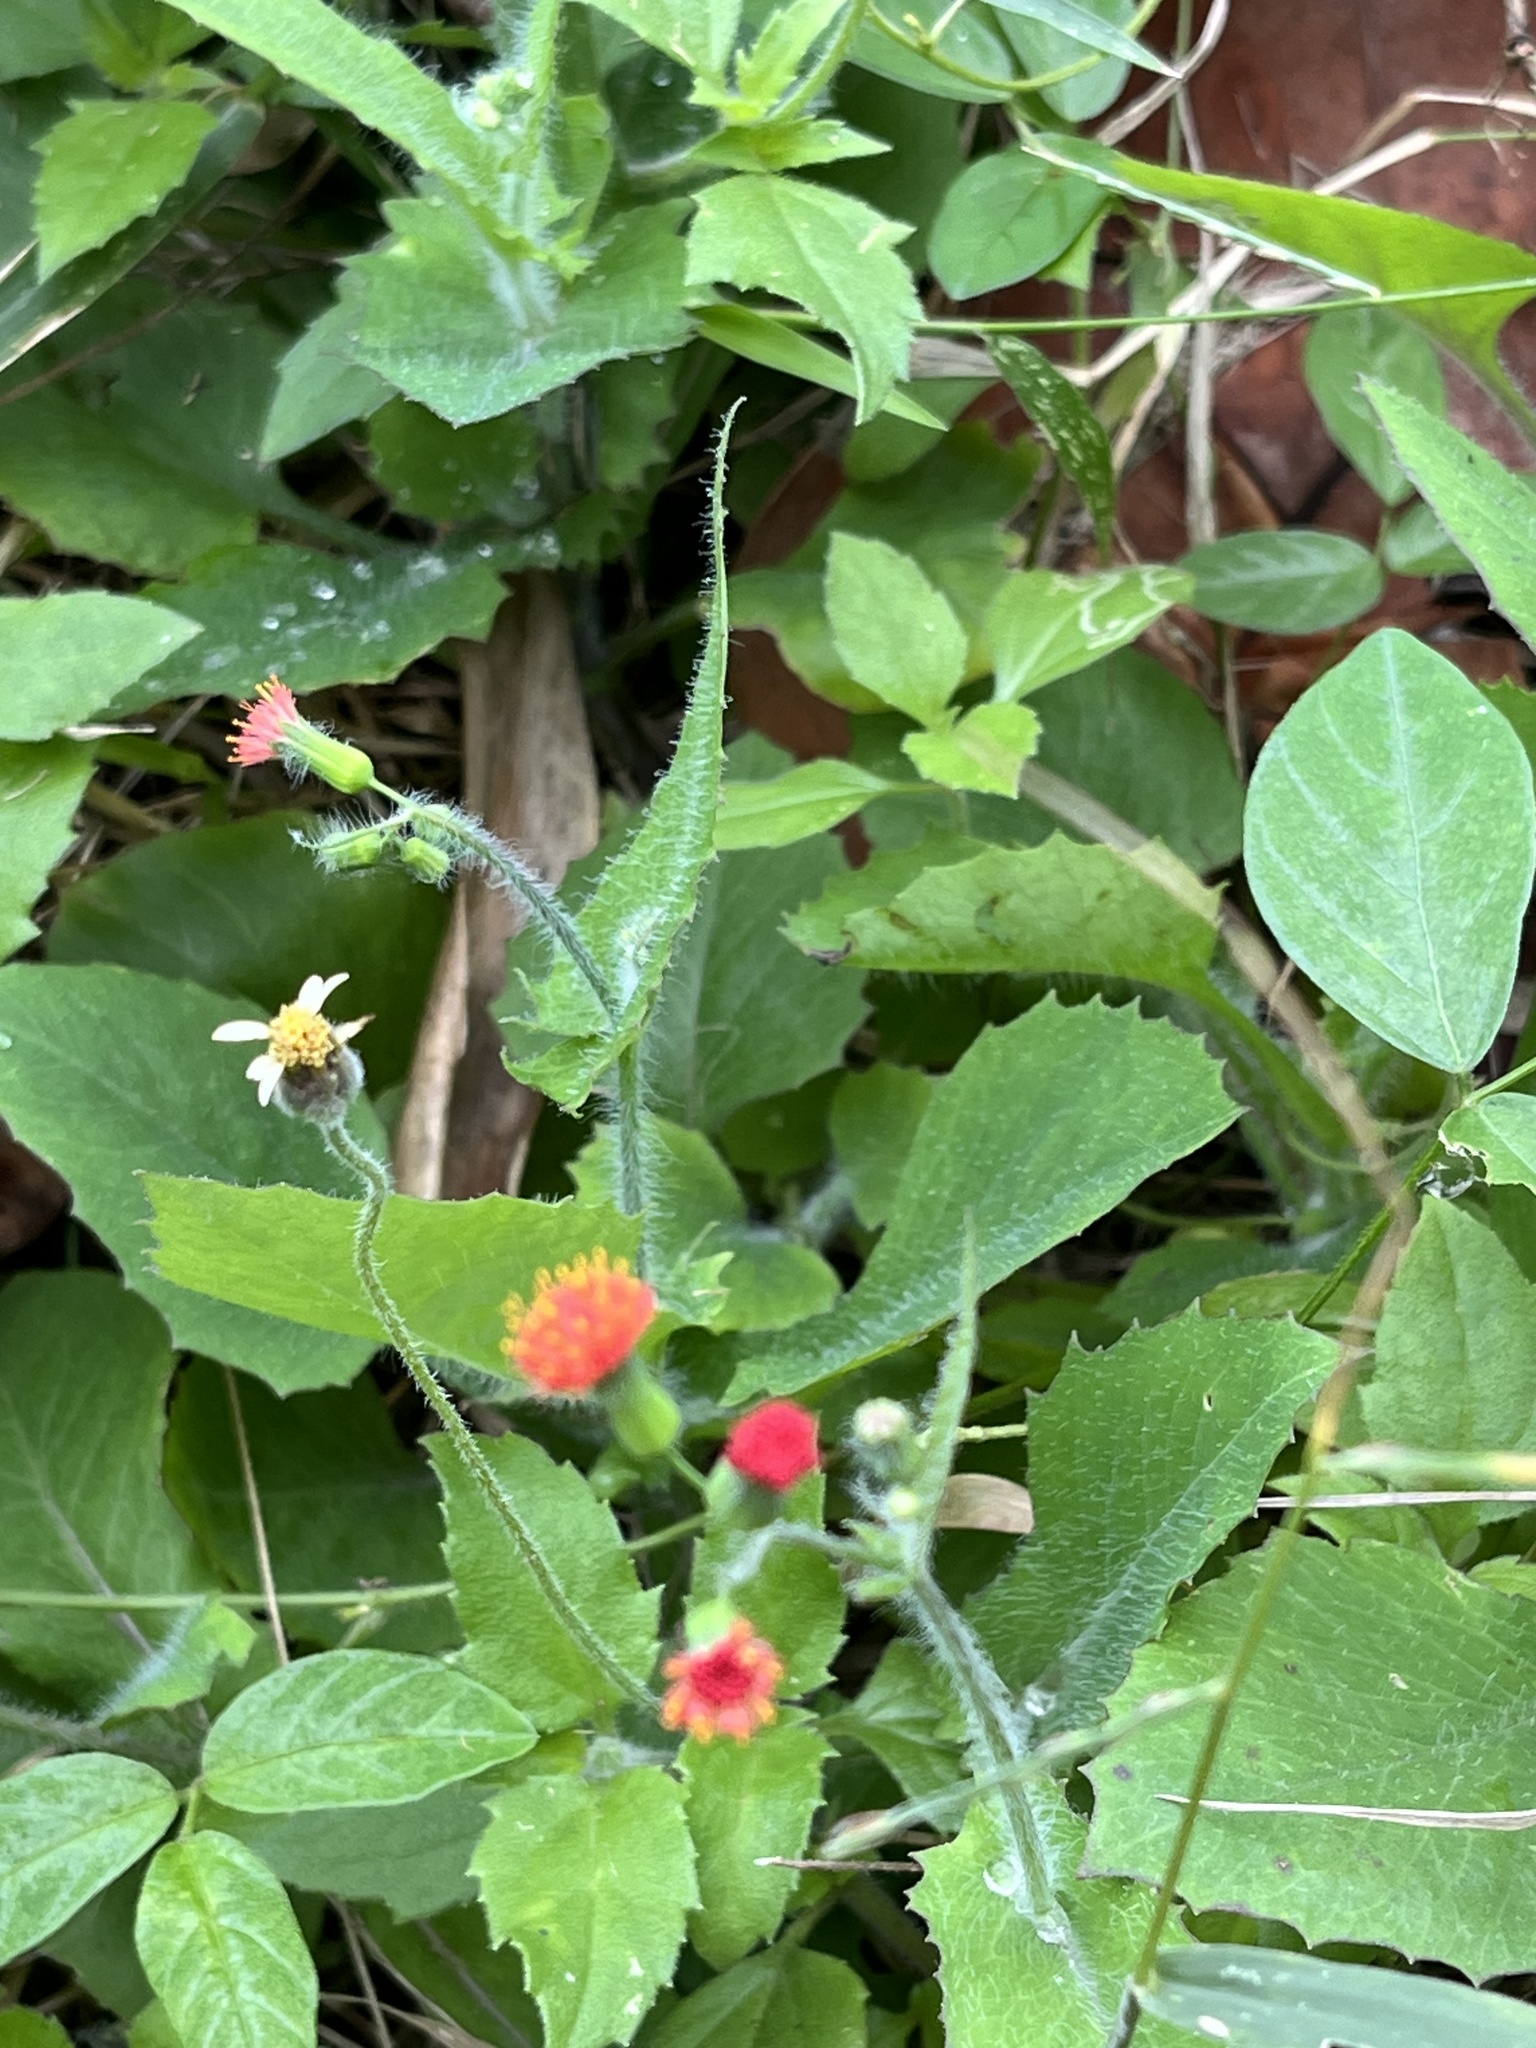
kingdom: Plantae
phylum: Tracheophyta
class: Magnoliopsida
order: Asterales
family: Asteraceae
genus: Emilia
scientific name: Emilia fosbergii
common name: Florida tasselflower
